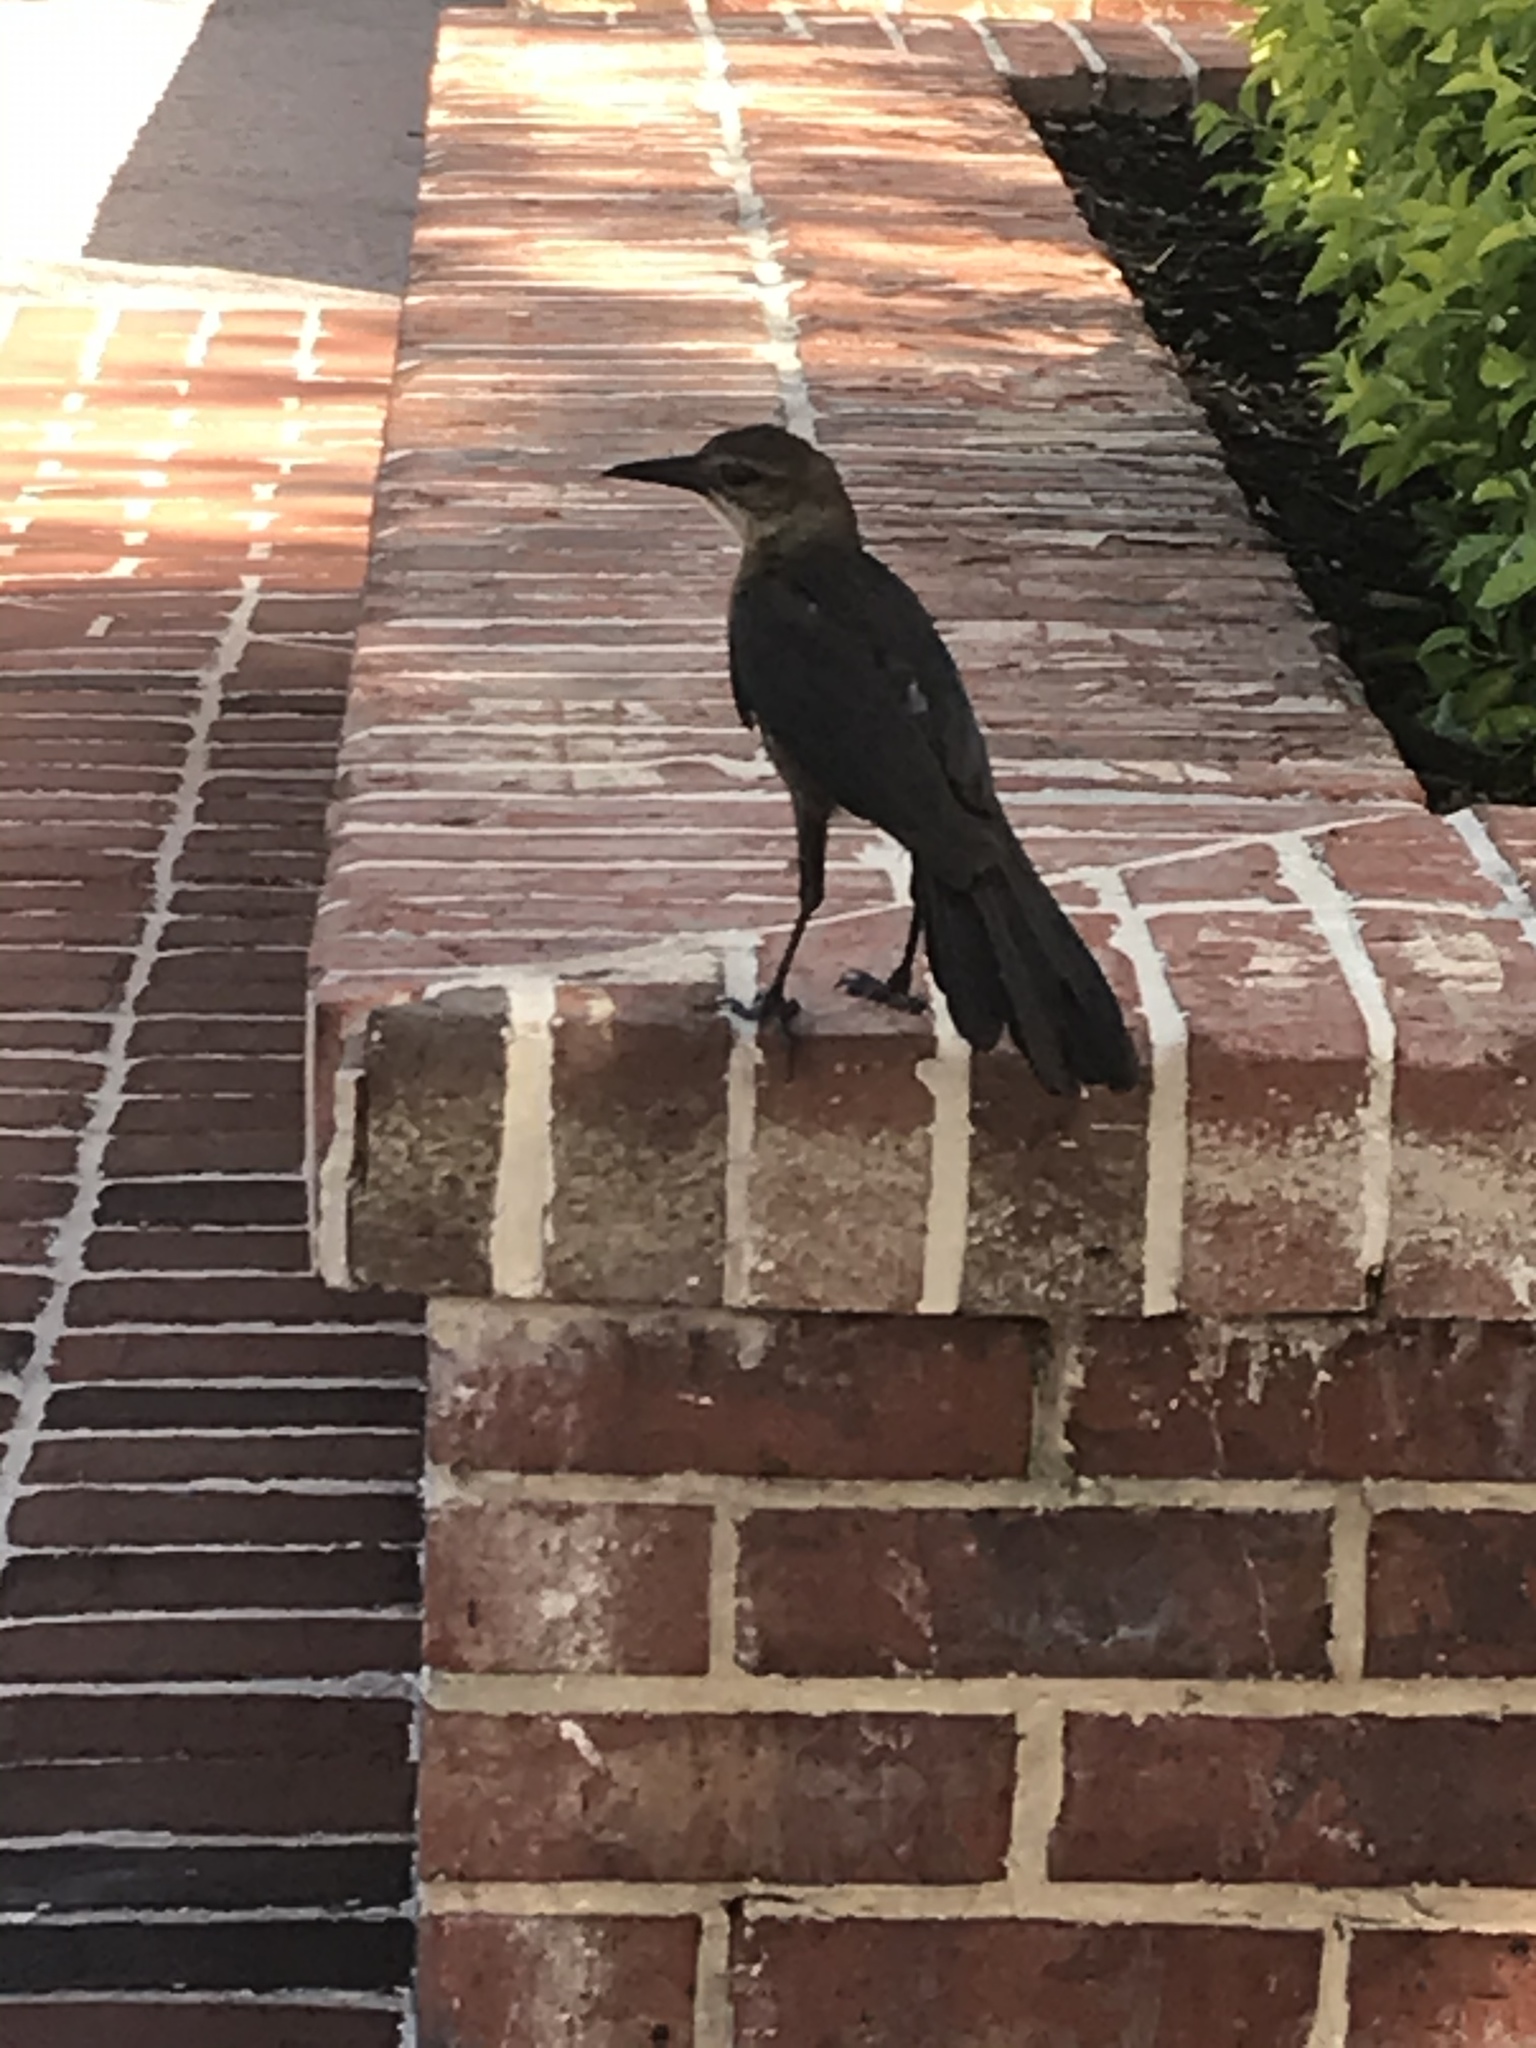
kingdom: Animalia
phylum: Chordata
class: Aves
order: Passeriformes
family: Icteridae
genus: Quiscalus
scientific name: Quiscalus major
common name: Boat-tailed grackle
